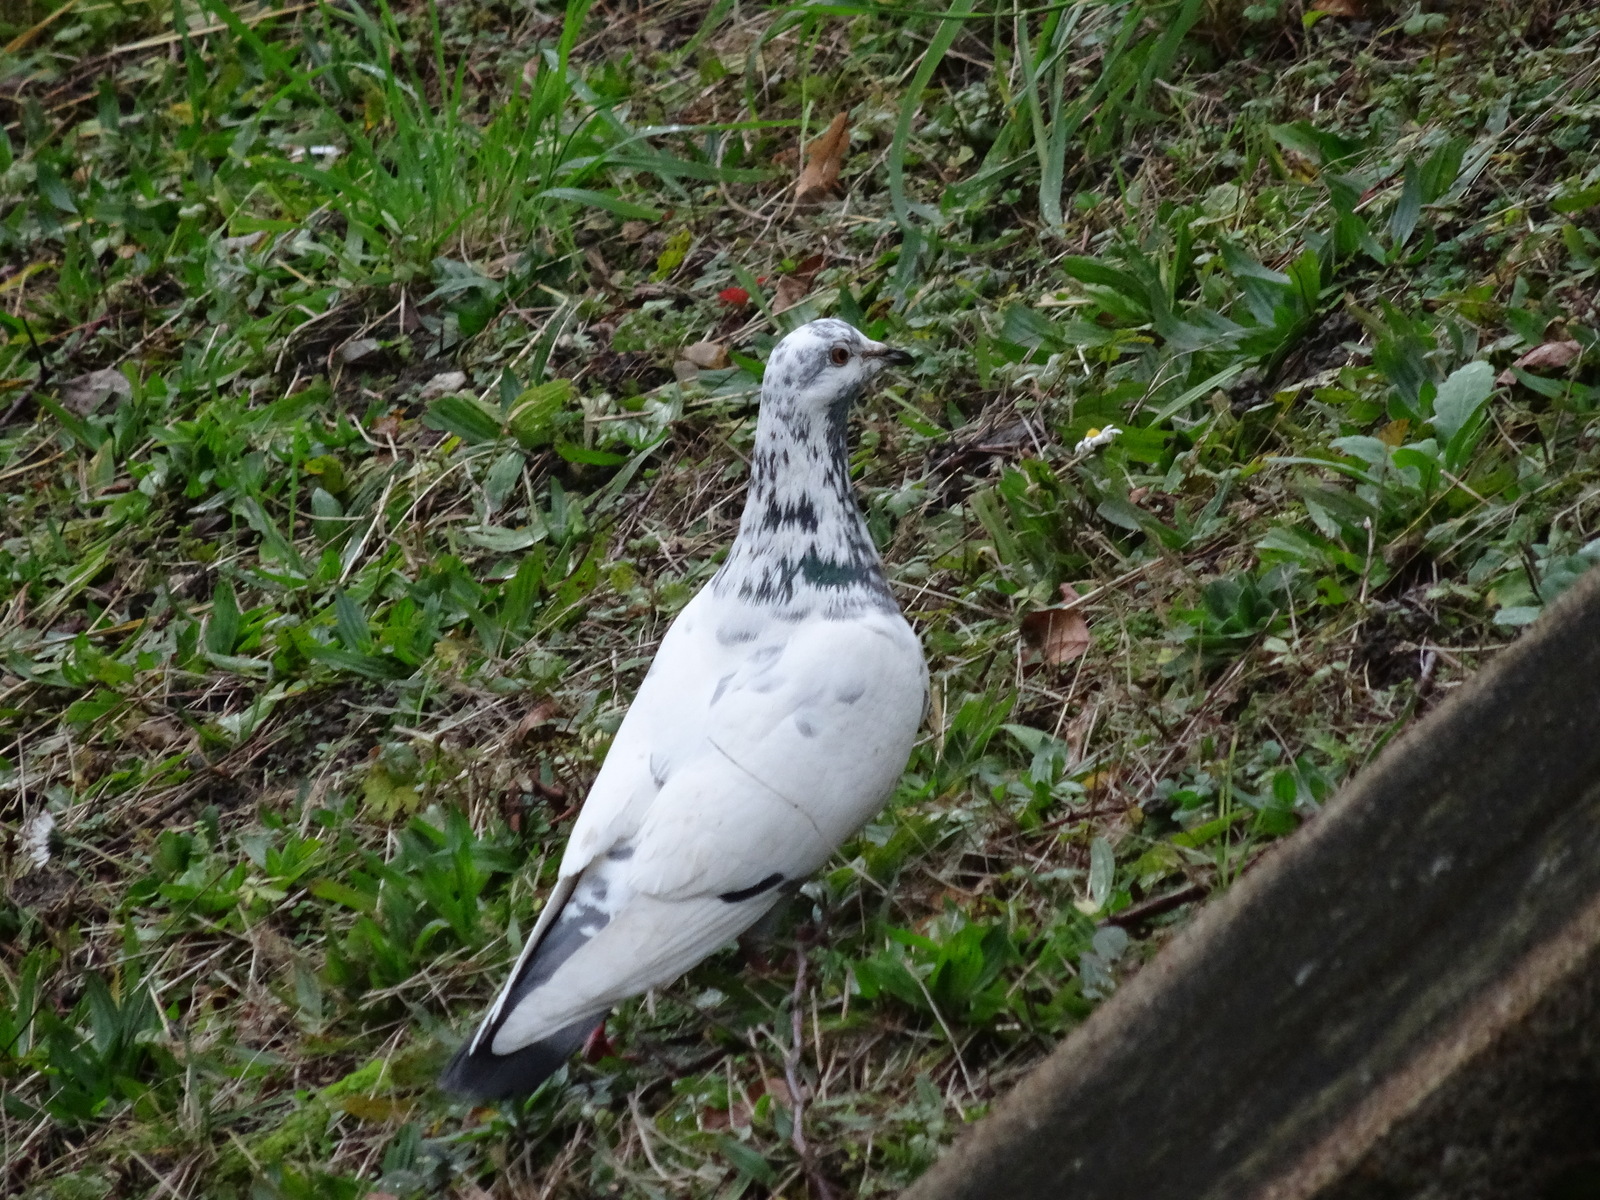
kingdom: Animalia
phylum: Chordata
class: Aves
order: Columbiformes
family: Columbidae
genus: Columba
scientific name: Columba livia
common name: Rock pigeon
